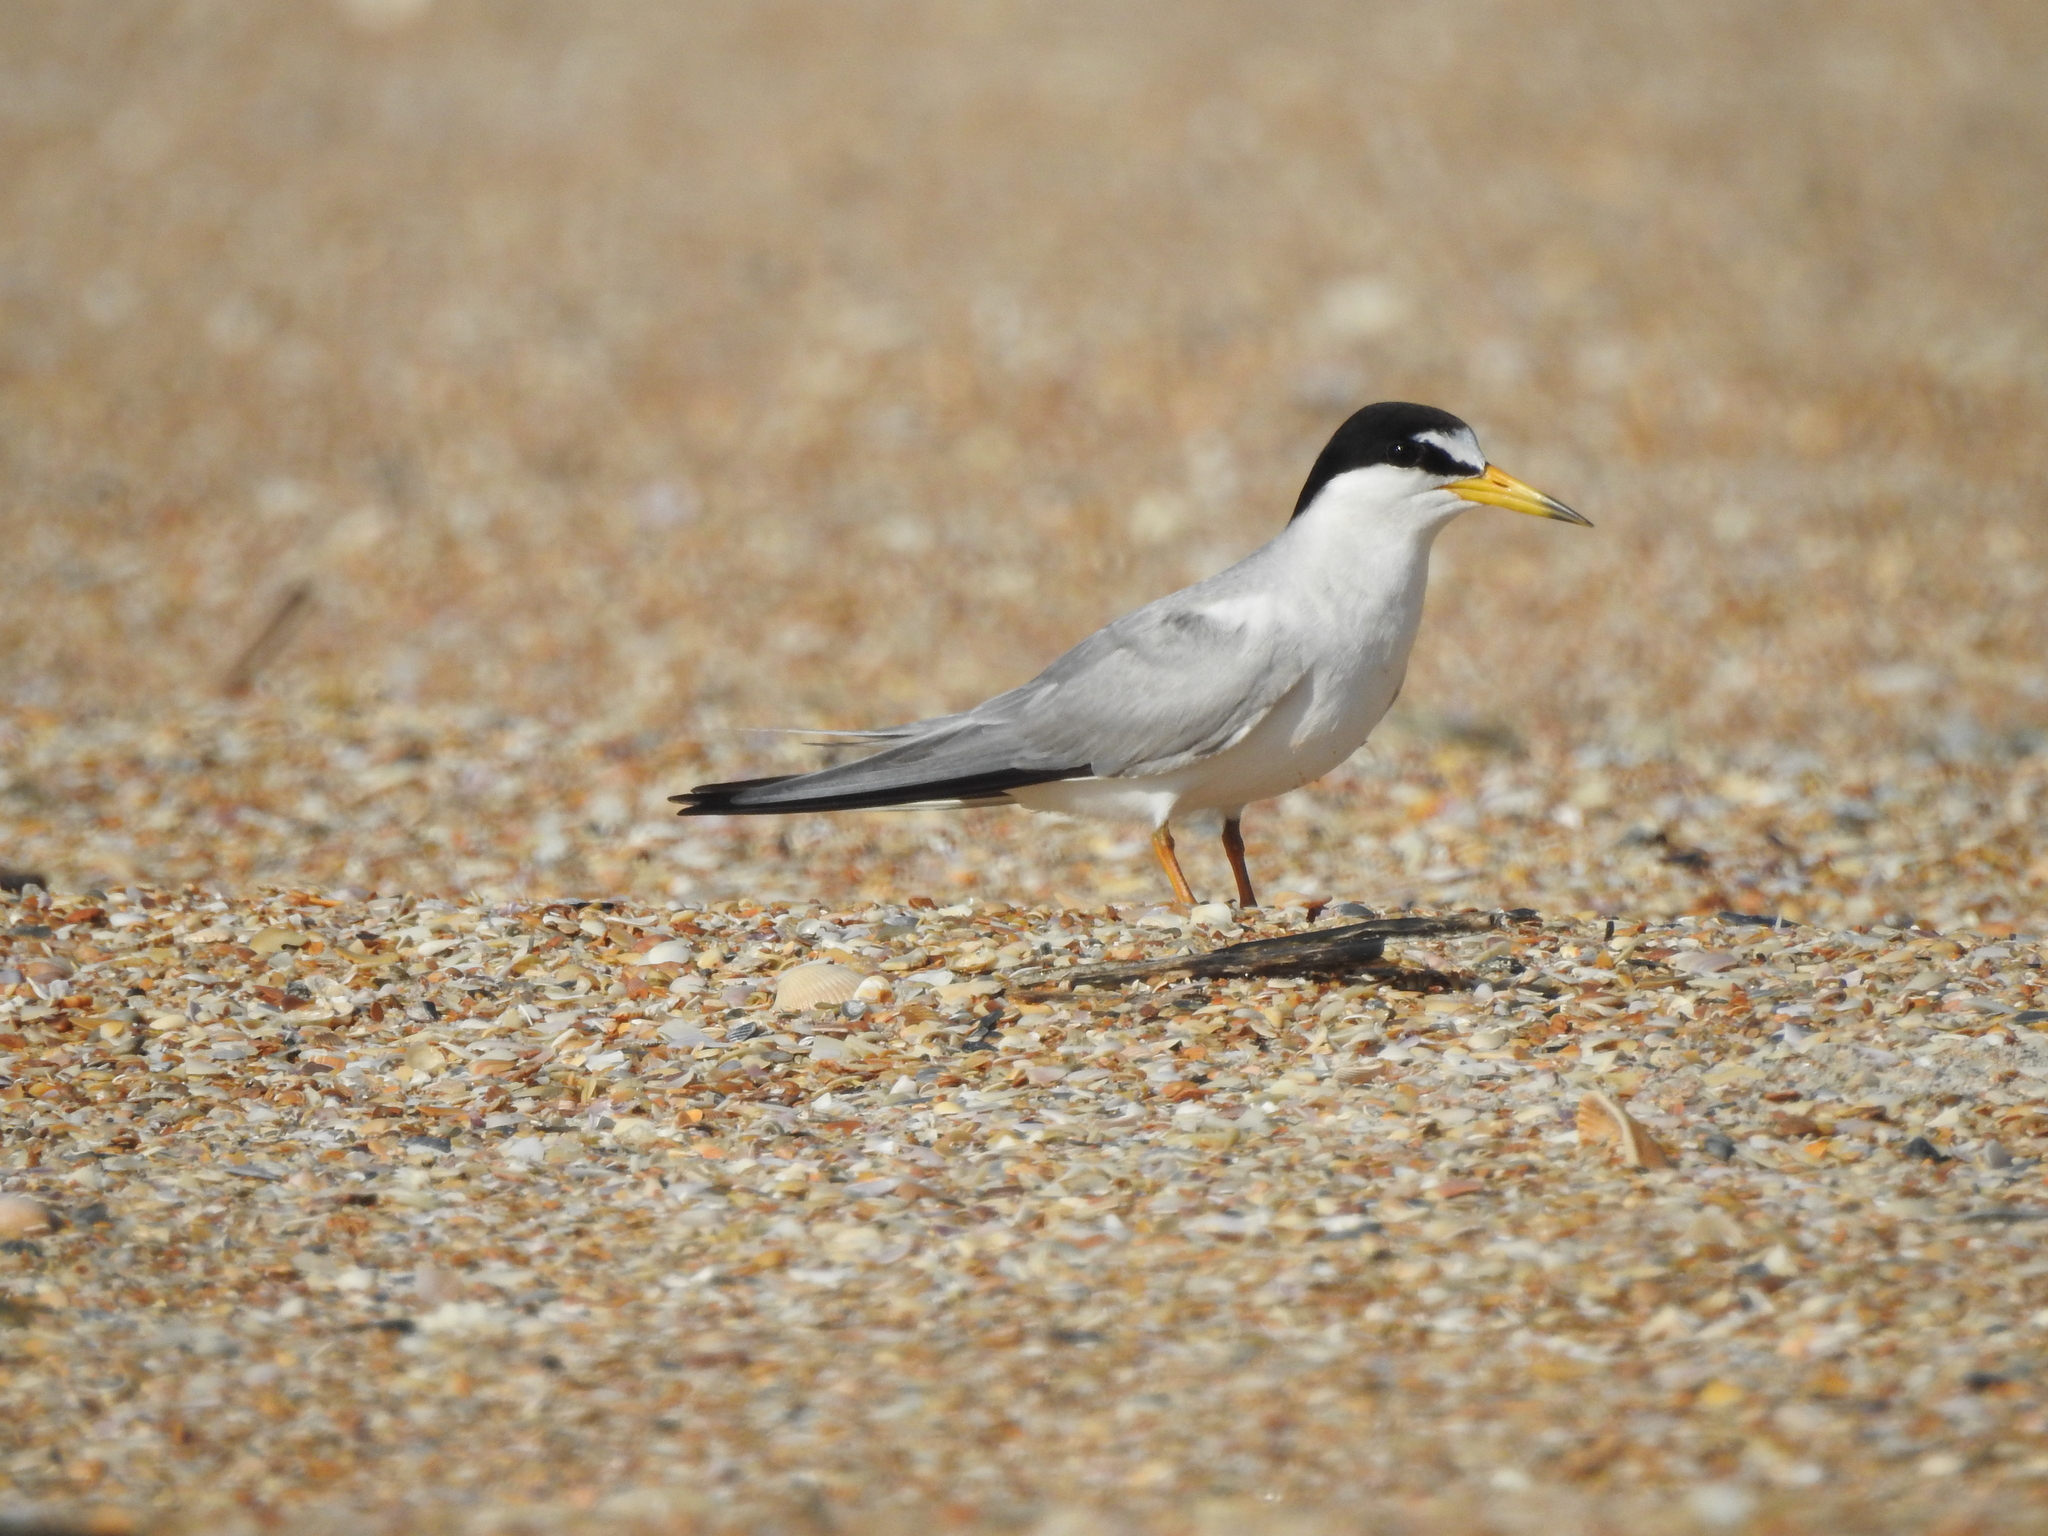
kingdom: Animalia
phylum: Chordata
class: Aves
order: Charadriiformes
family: Laridae
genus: Sternula
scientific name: Sternula antillarum
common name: Least tern
